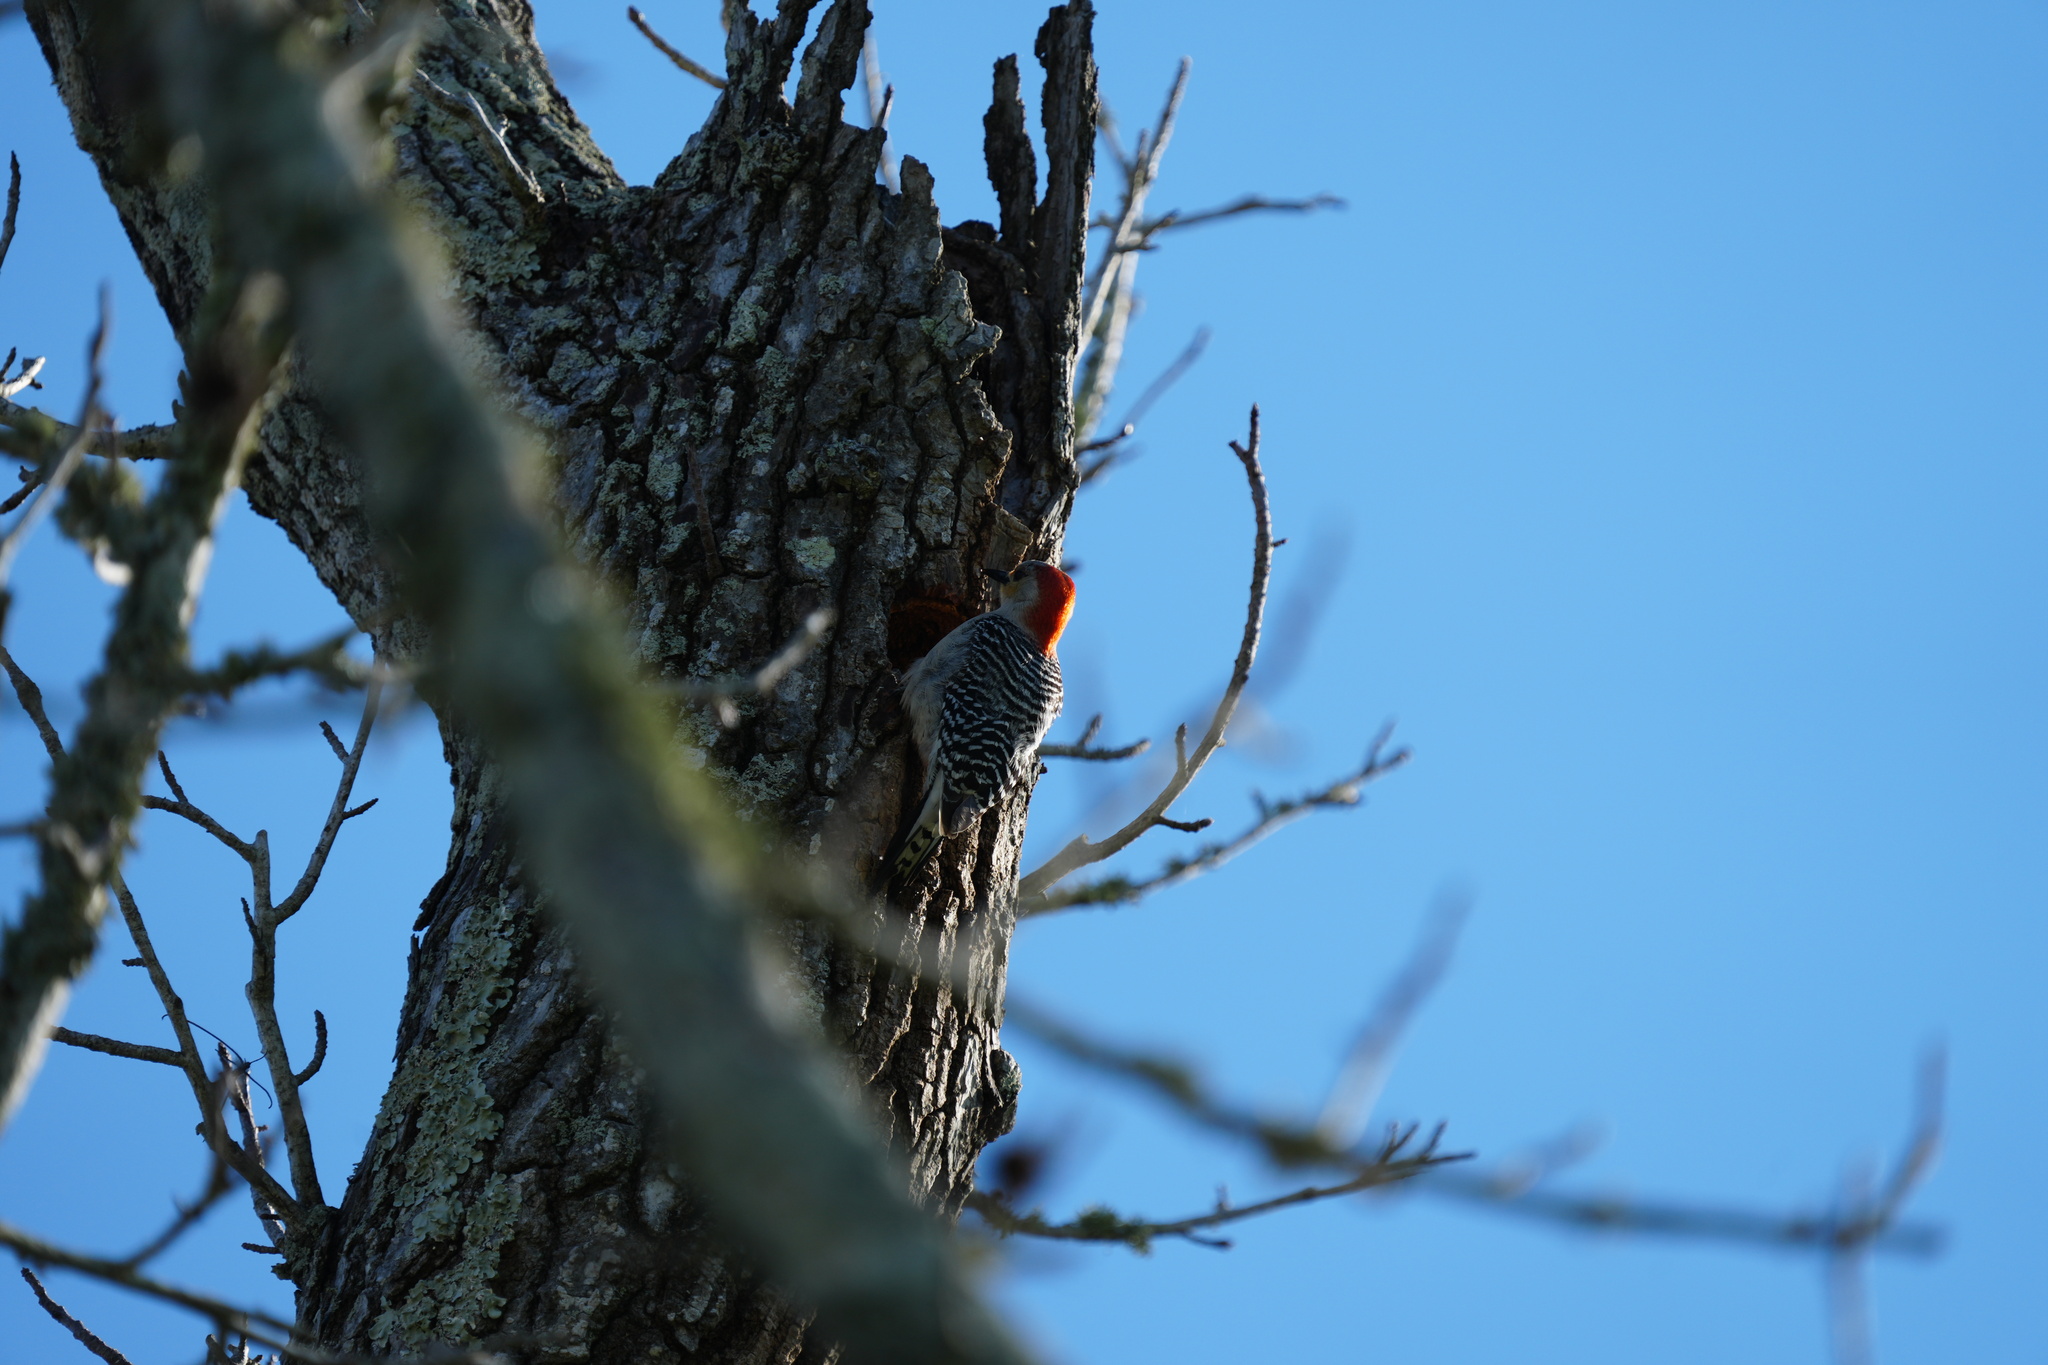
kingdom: Animalia
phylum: Chordata
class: Aves
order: Piciformes
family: Picidae
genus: Melanerpes
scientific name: Melanerpes carolinus
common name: Red-bellied woodpecker
